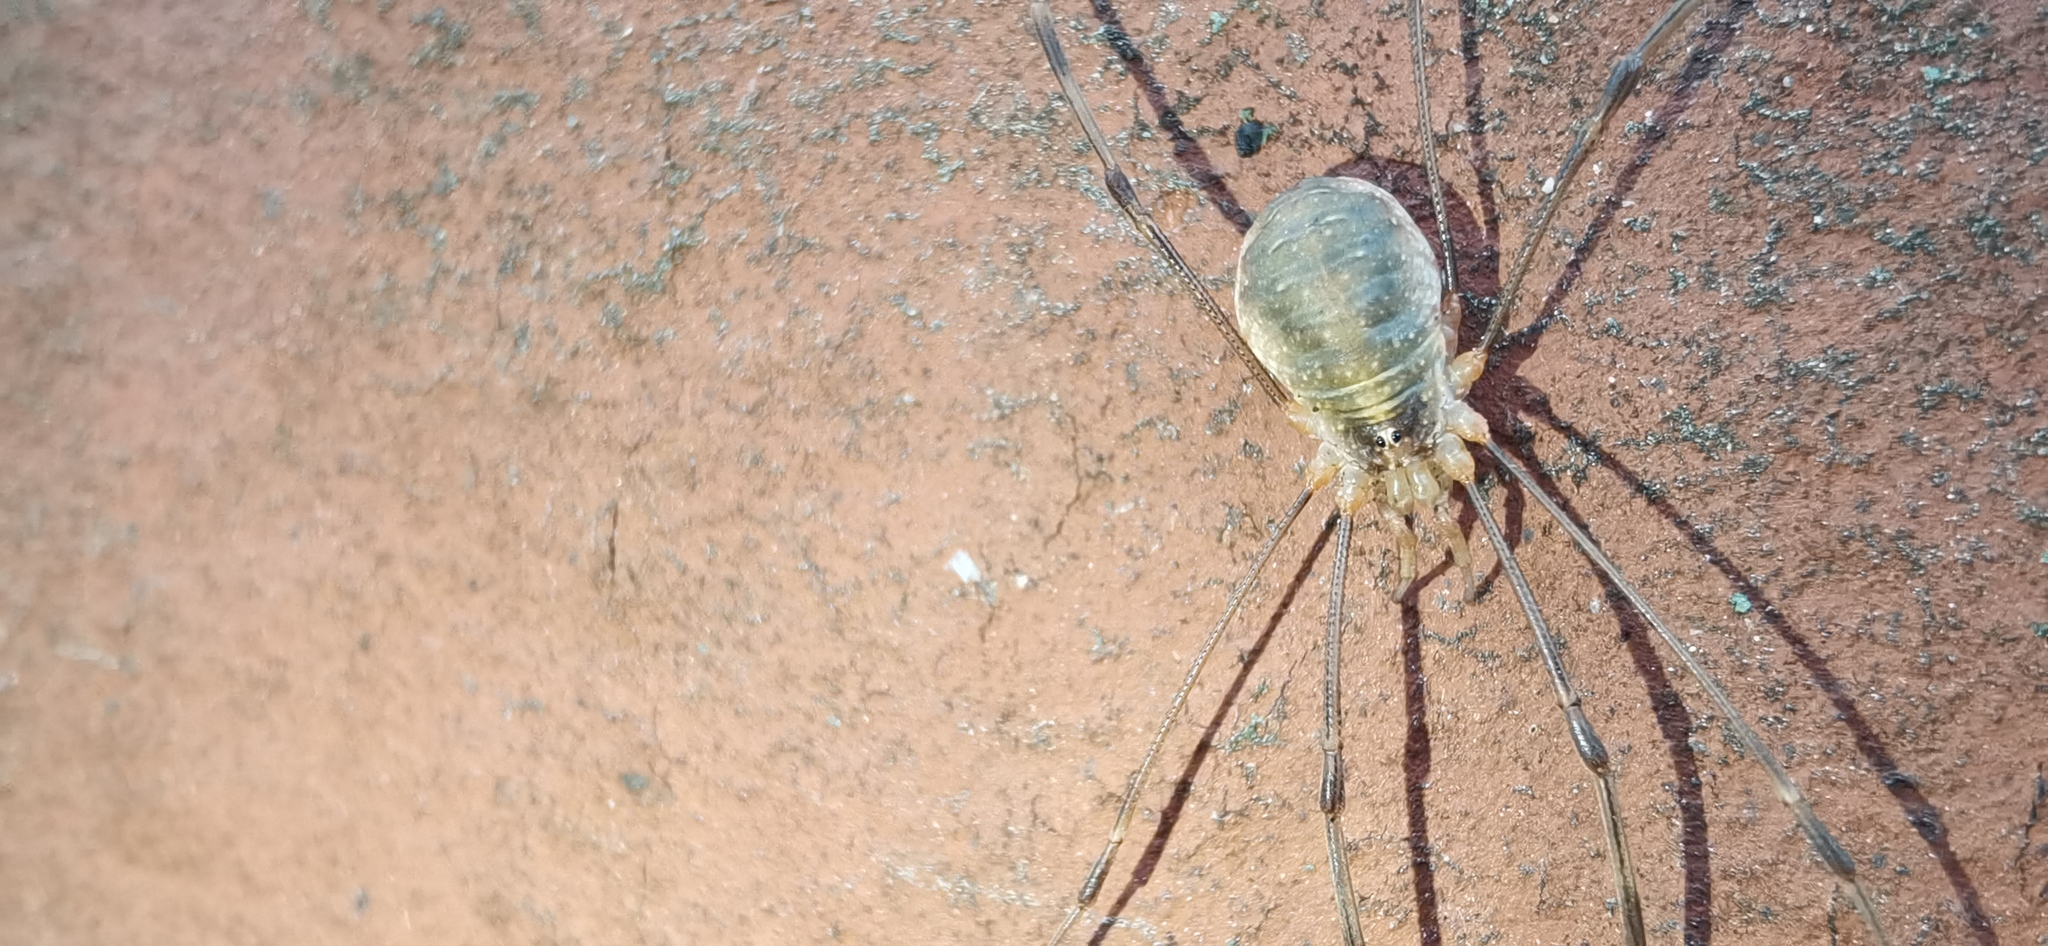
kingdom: Animalia
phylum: Arthropoda
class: Arachnida
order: Opiliones
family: Phalangiidae
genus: Opilio
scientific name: Opilio canestrinii
